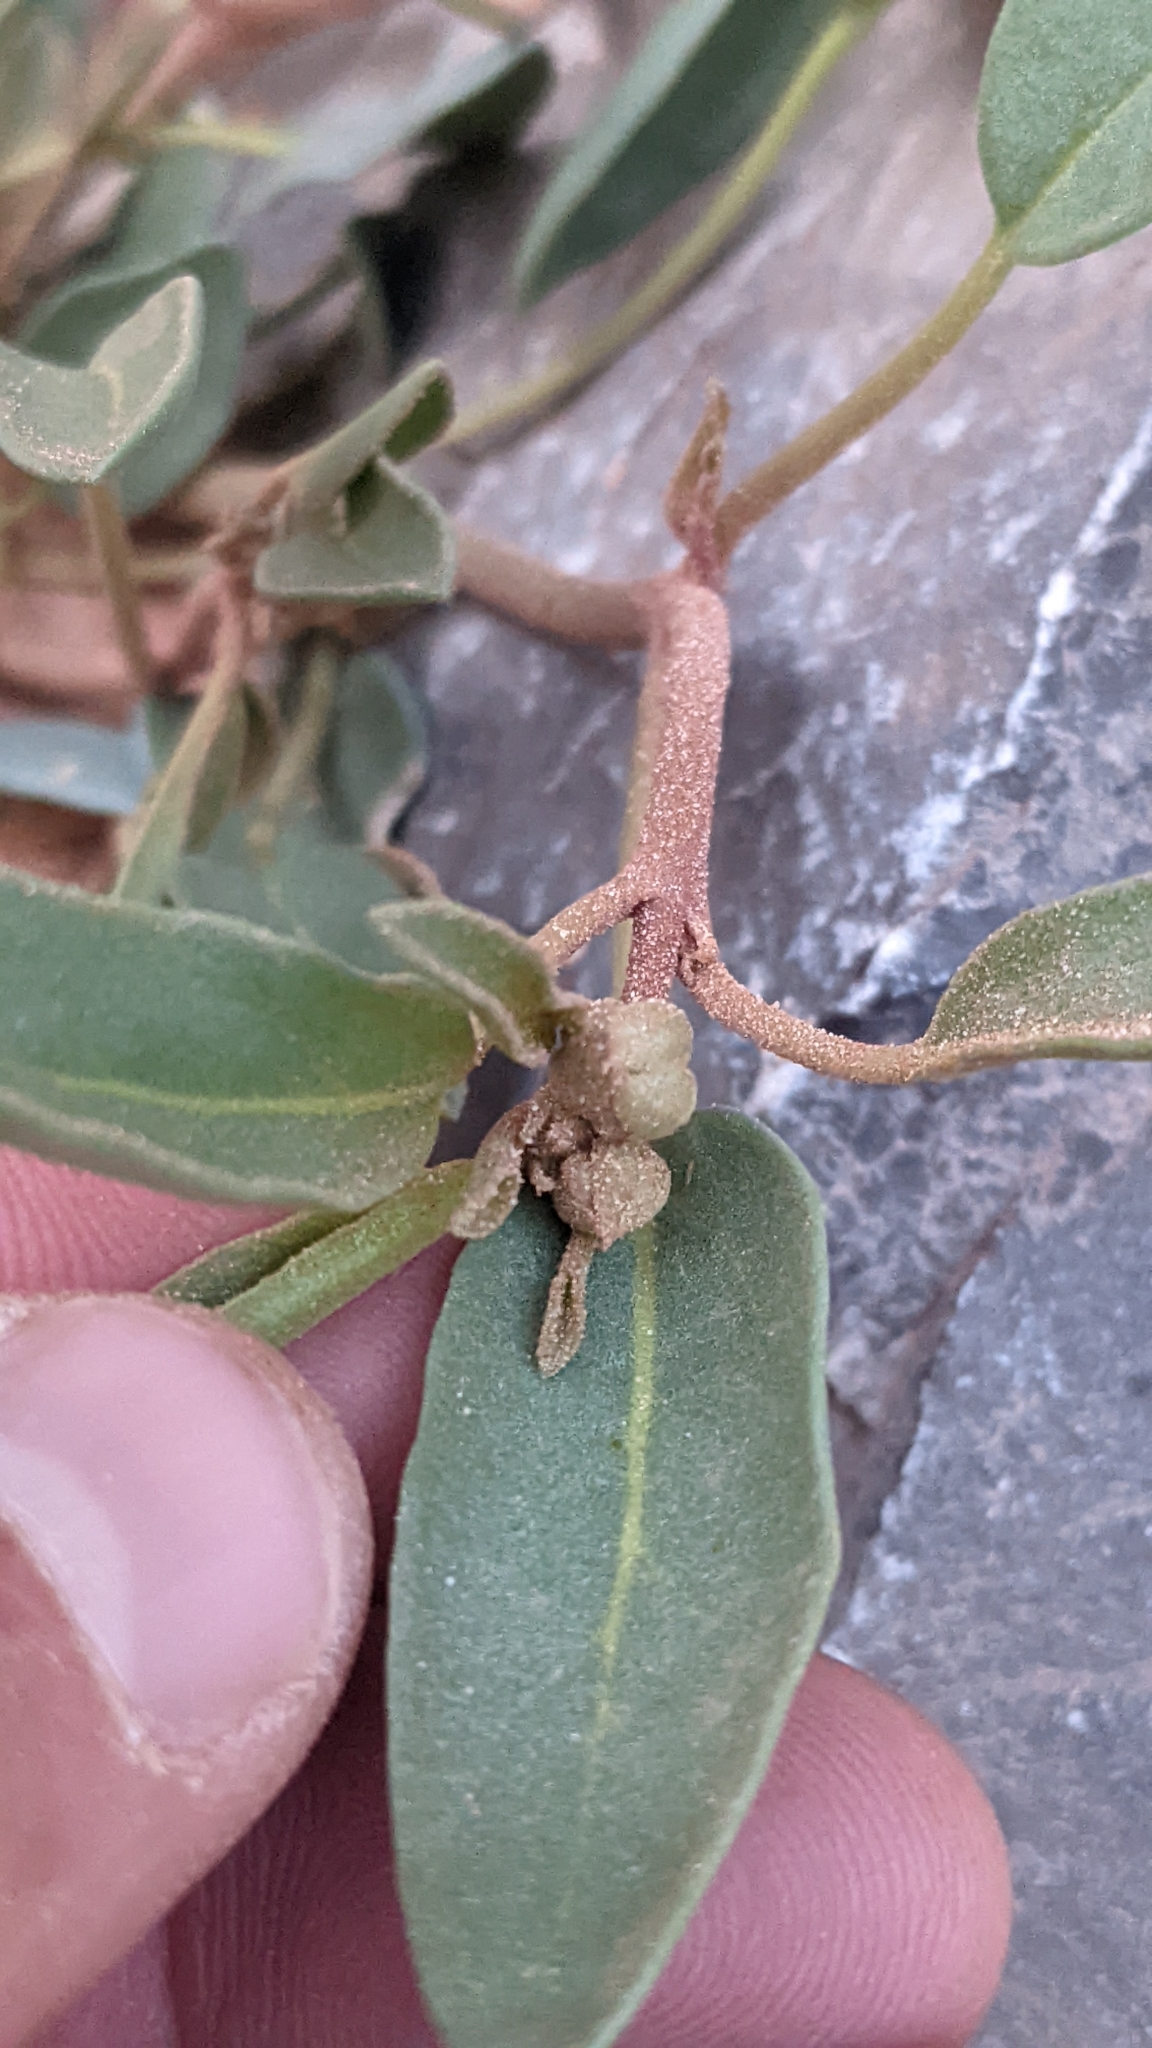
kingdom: Plantae
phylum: Tracheophyta
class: Magnoliopsida
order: Caryophyllales
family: Nyctaginaceae
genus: Abronia
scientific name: Abronia elliptica
